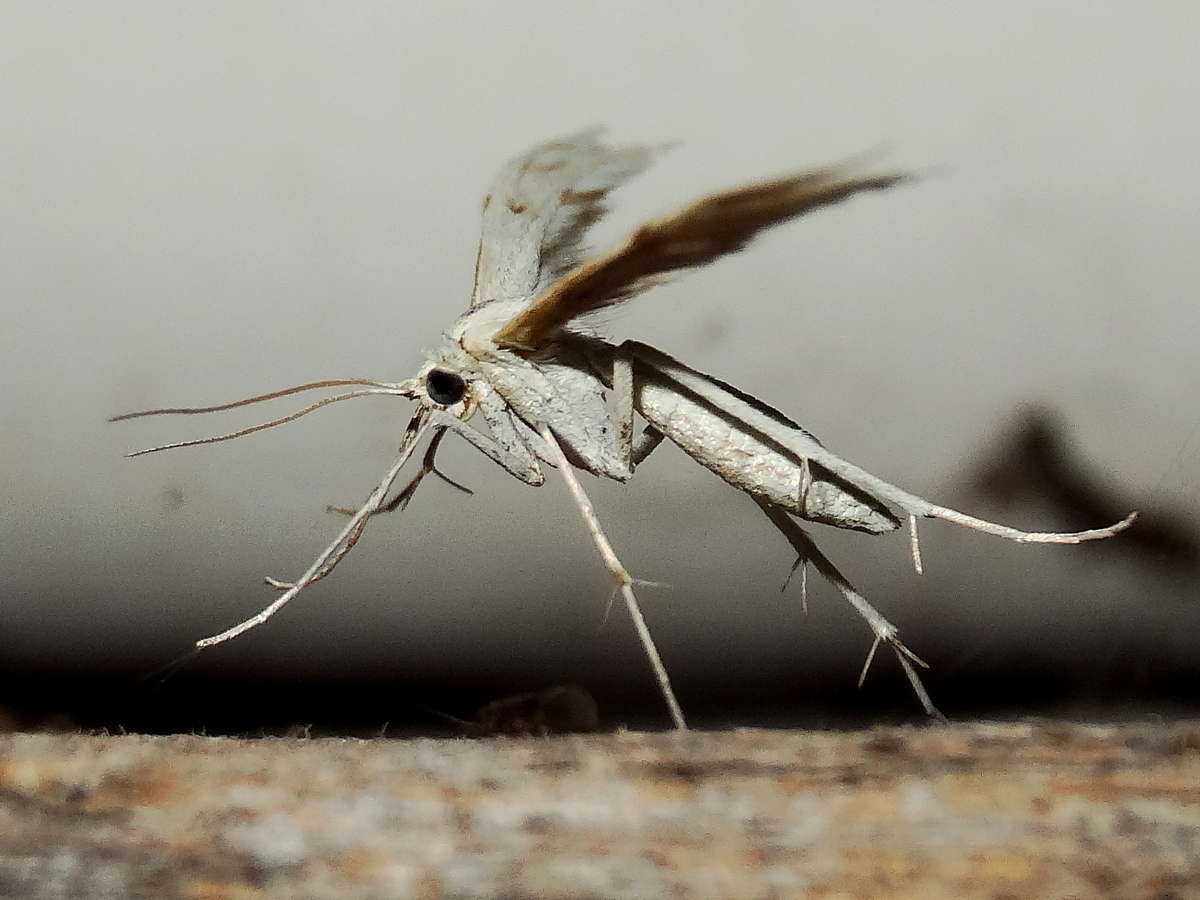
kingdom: Animalia
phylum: Arthropoda
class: Insecta
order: Lepidoptera
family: Pterophoridae
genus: Wheeleria
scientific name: Wheeleria spilodactylus
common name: Horehound plume
